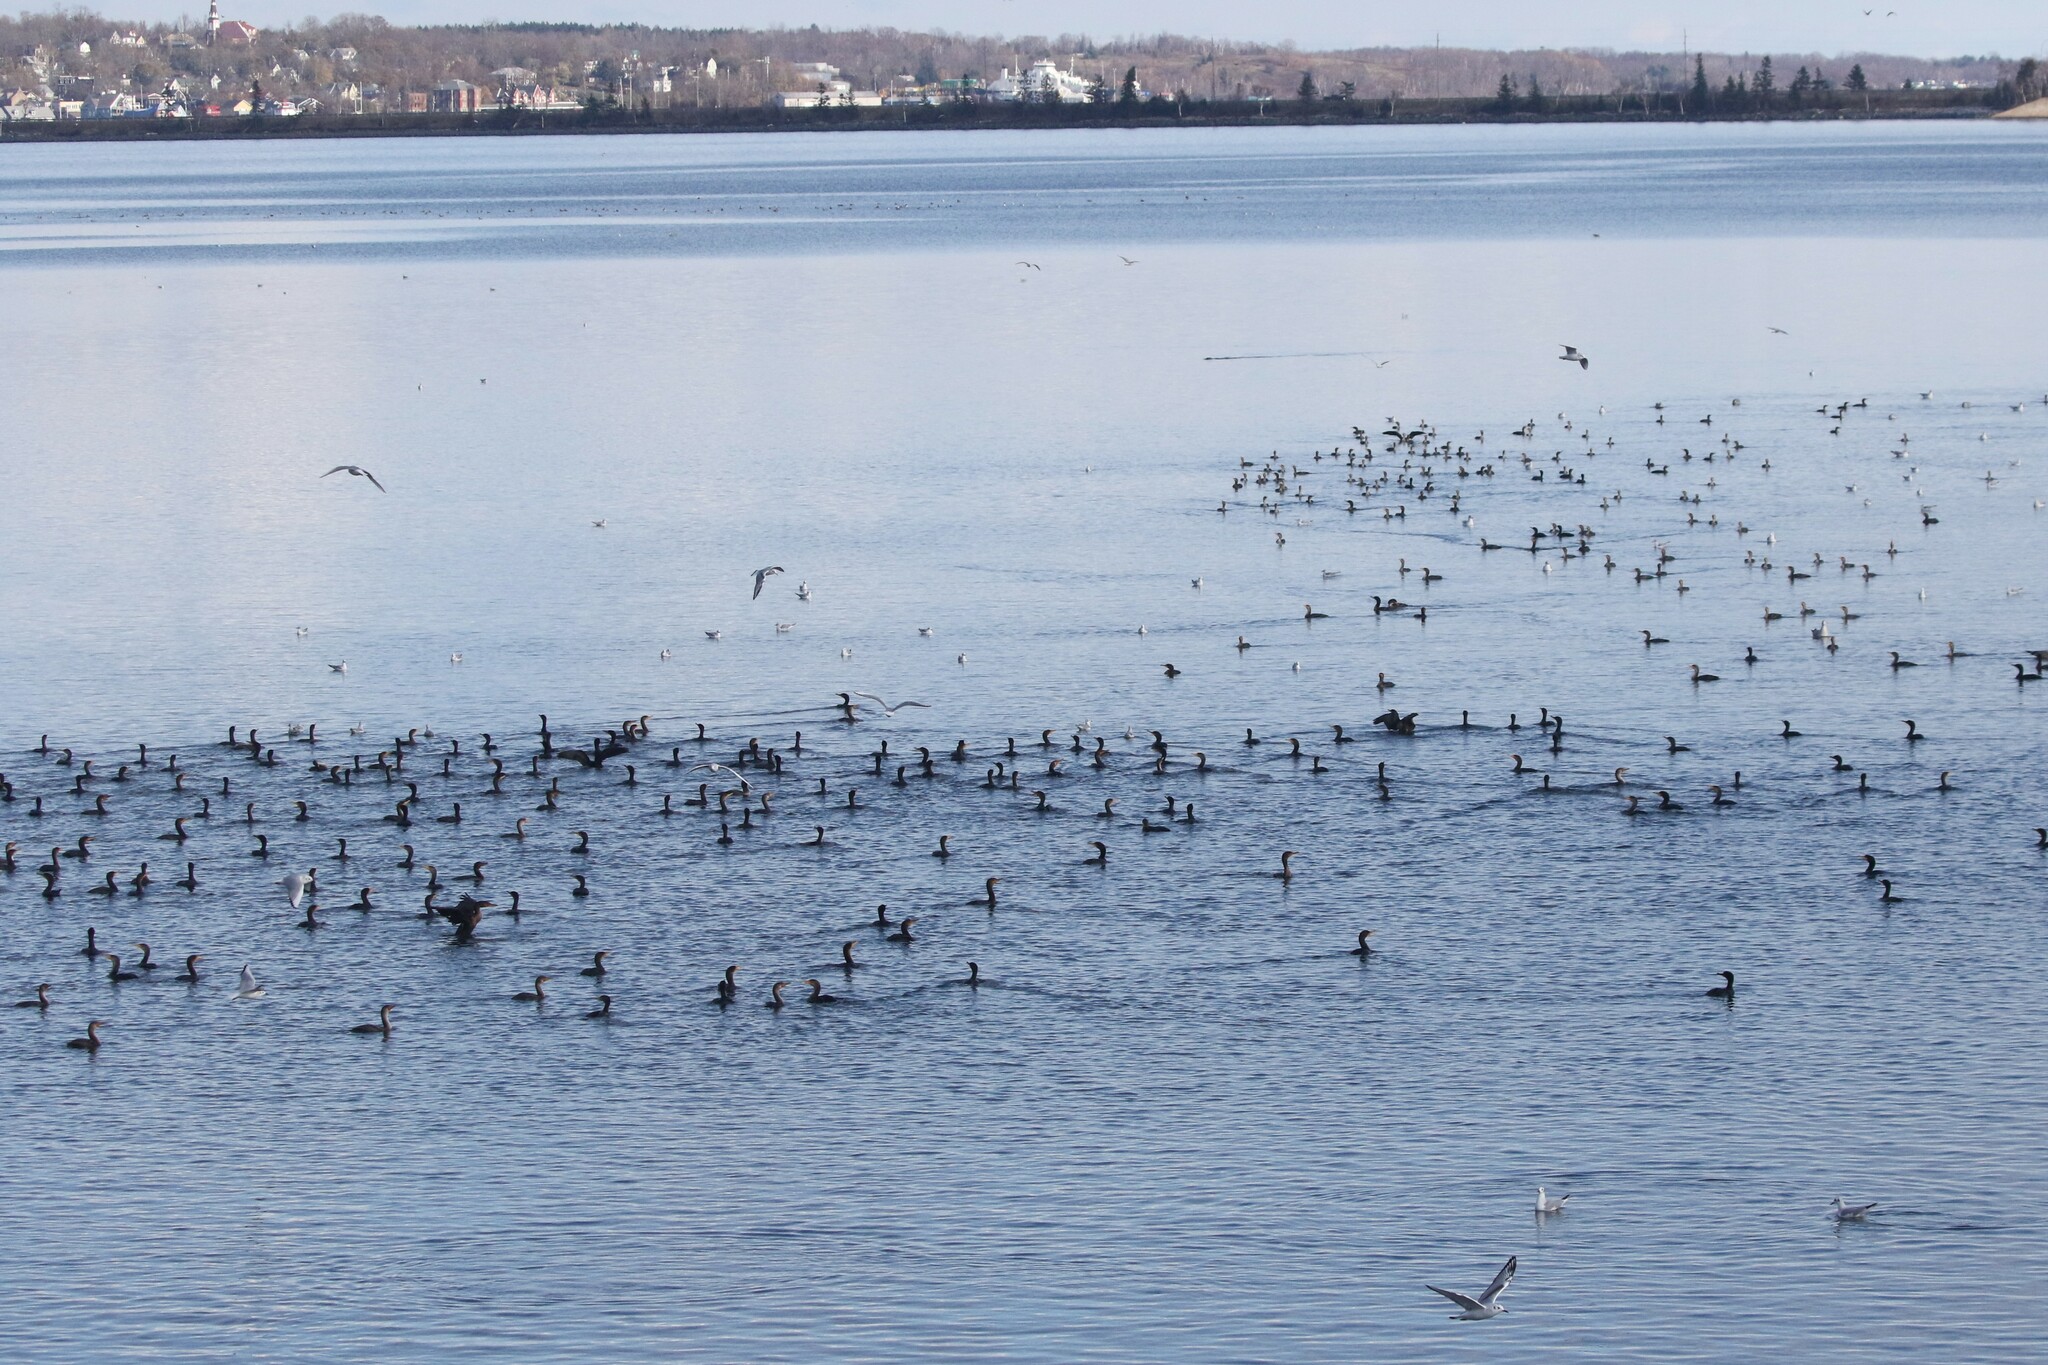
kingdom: Animalia
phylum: Chordata
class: Aves
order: Suliformes
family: Phalacrocoracidae
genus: Phalacrocorax
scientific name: Phalacrocorax auritus
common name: Double-crested cormorant
